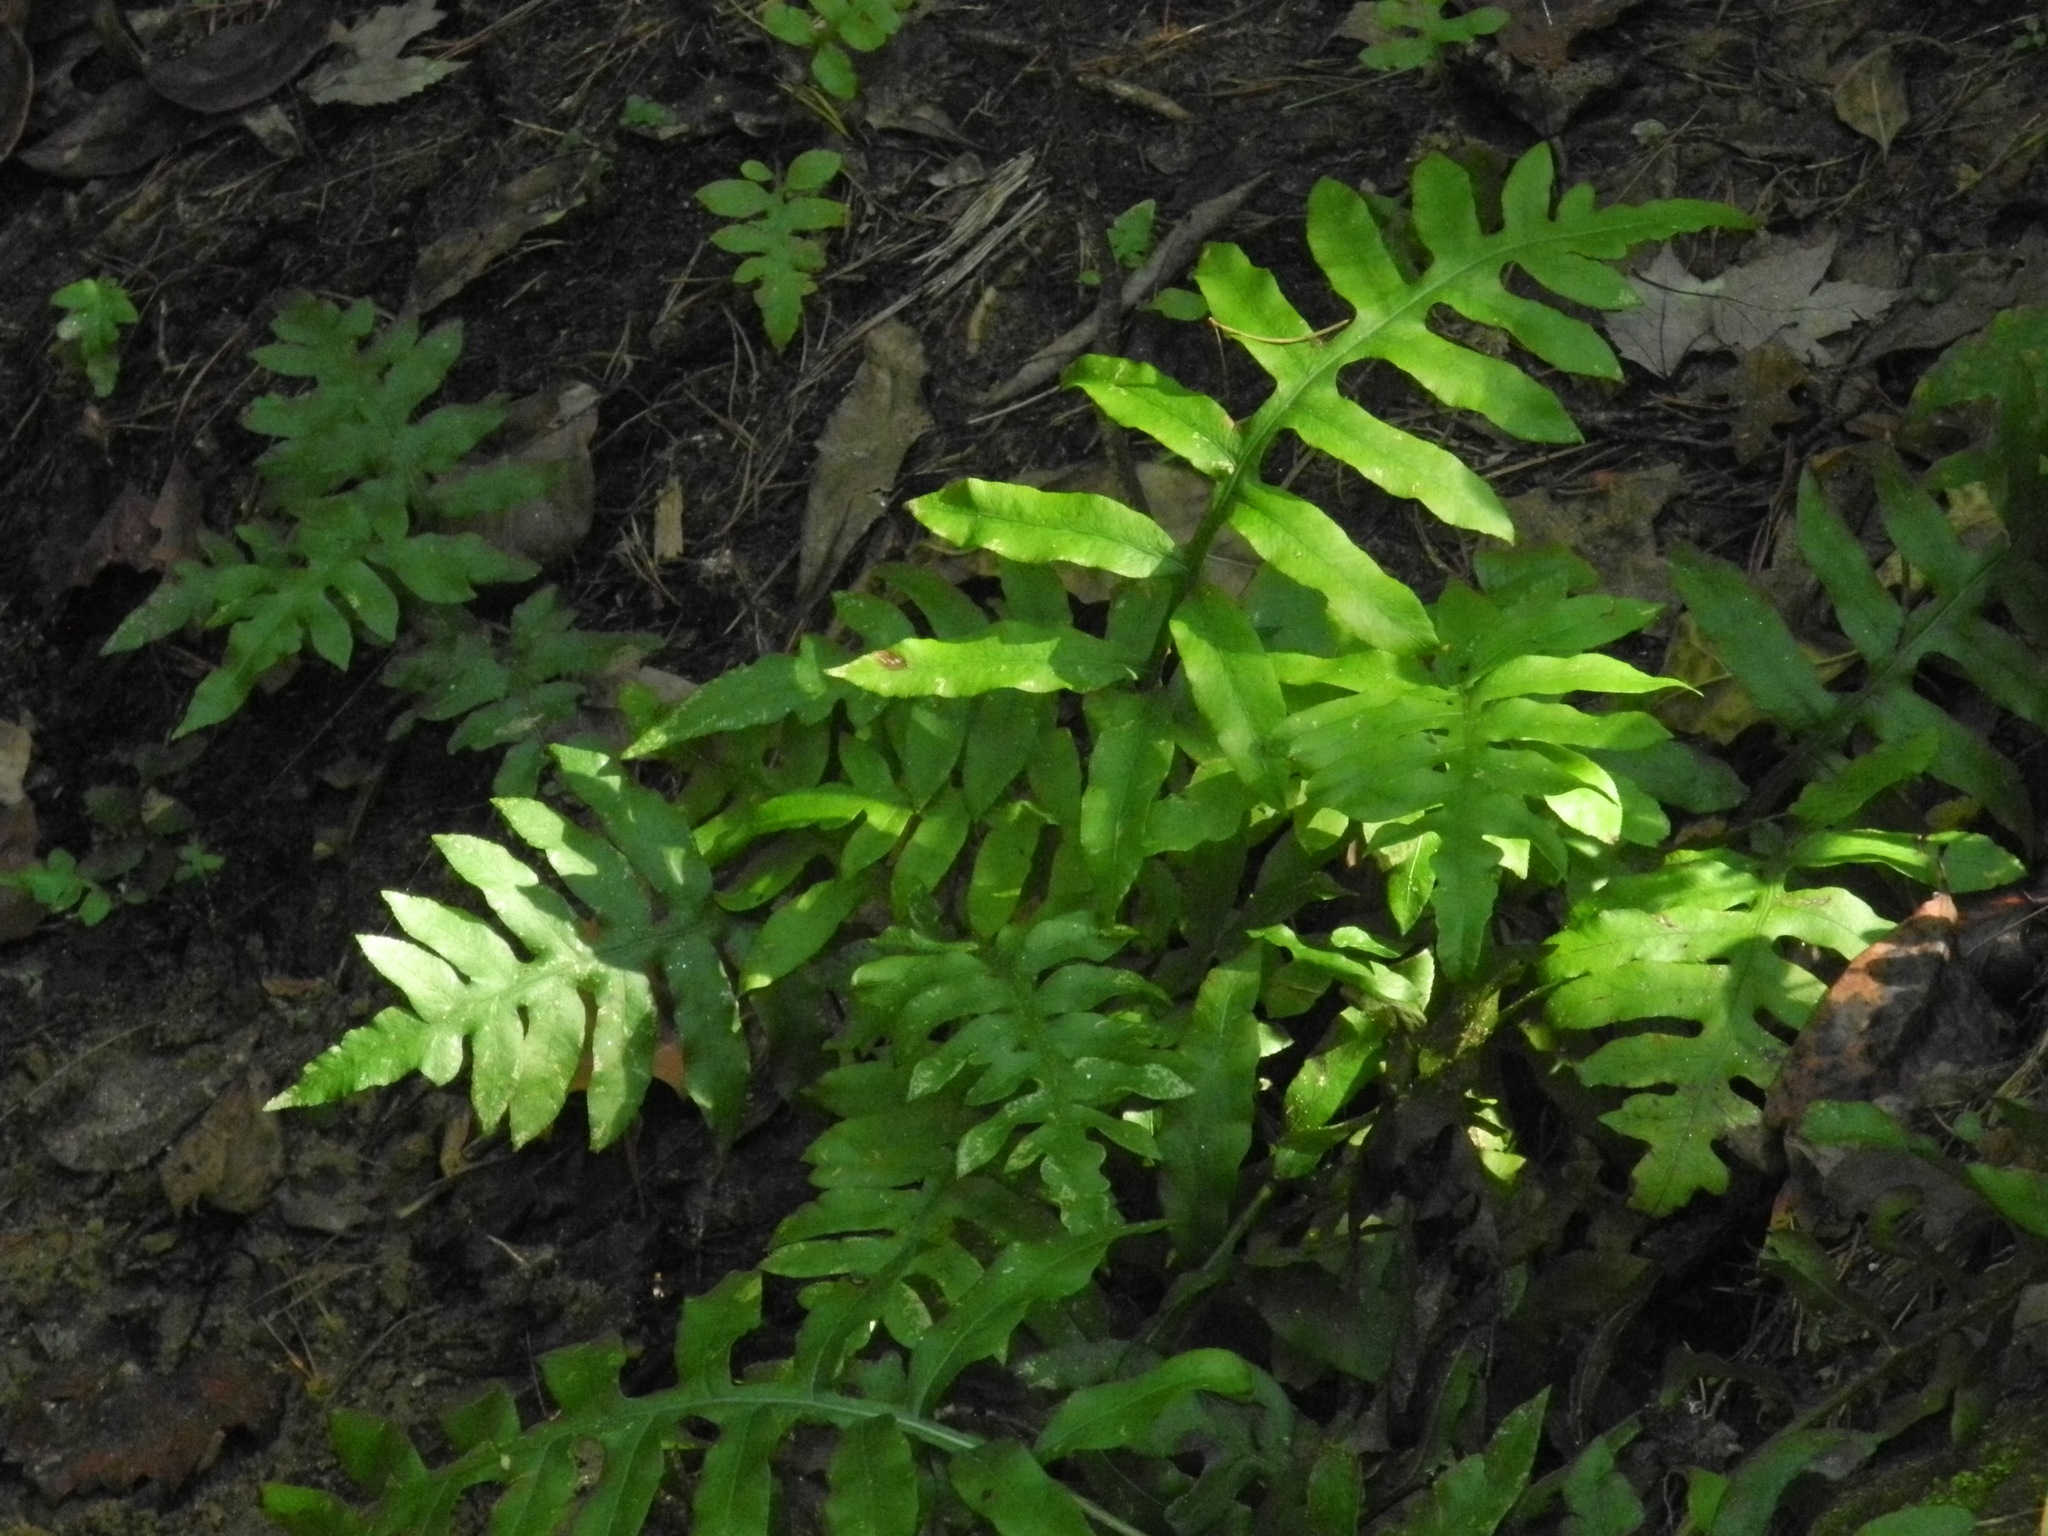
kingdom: Plantae
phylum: Tracheophyta
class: Polypodiopsida
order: Polypodiales
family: Blechnaceae
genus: Lorinseria
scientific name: Lorinseria areolata
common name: Dwarf chain fern
